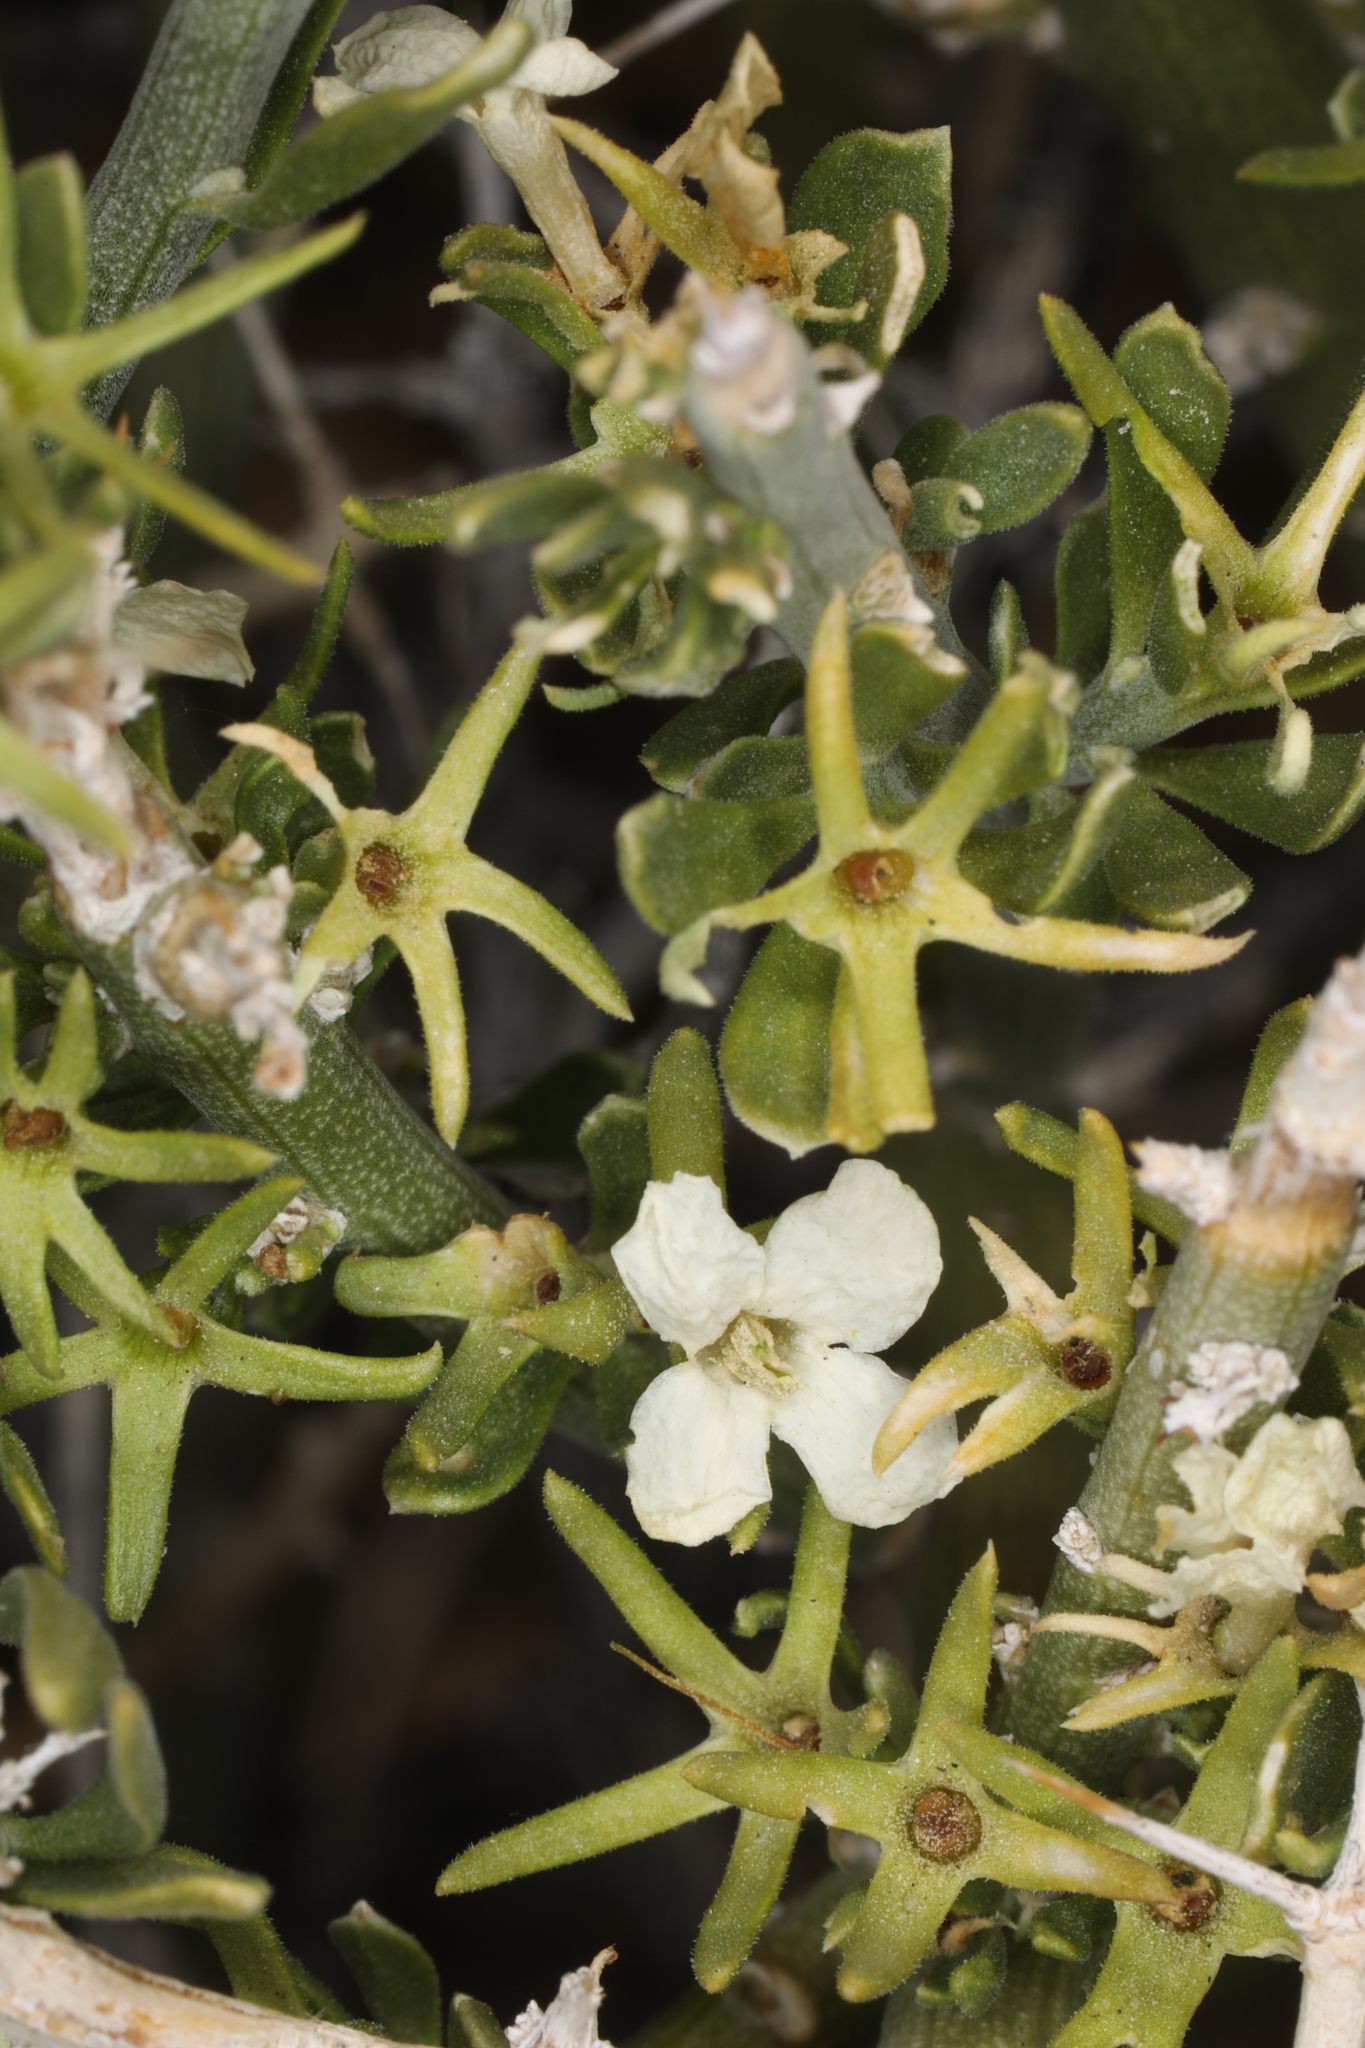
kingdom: Plantae
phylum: Tracheophyta
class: Magnoliopsida
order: Lamiales
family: Oleaceae
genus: Menodora
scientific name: Menodora spinescens
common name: Spiny menodora
